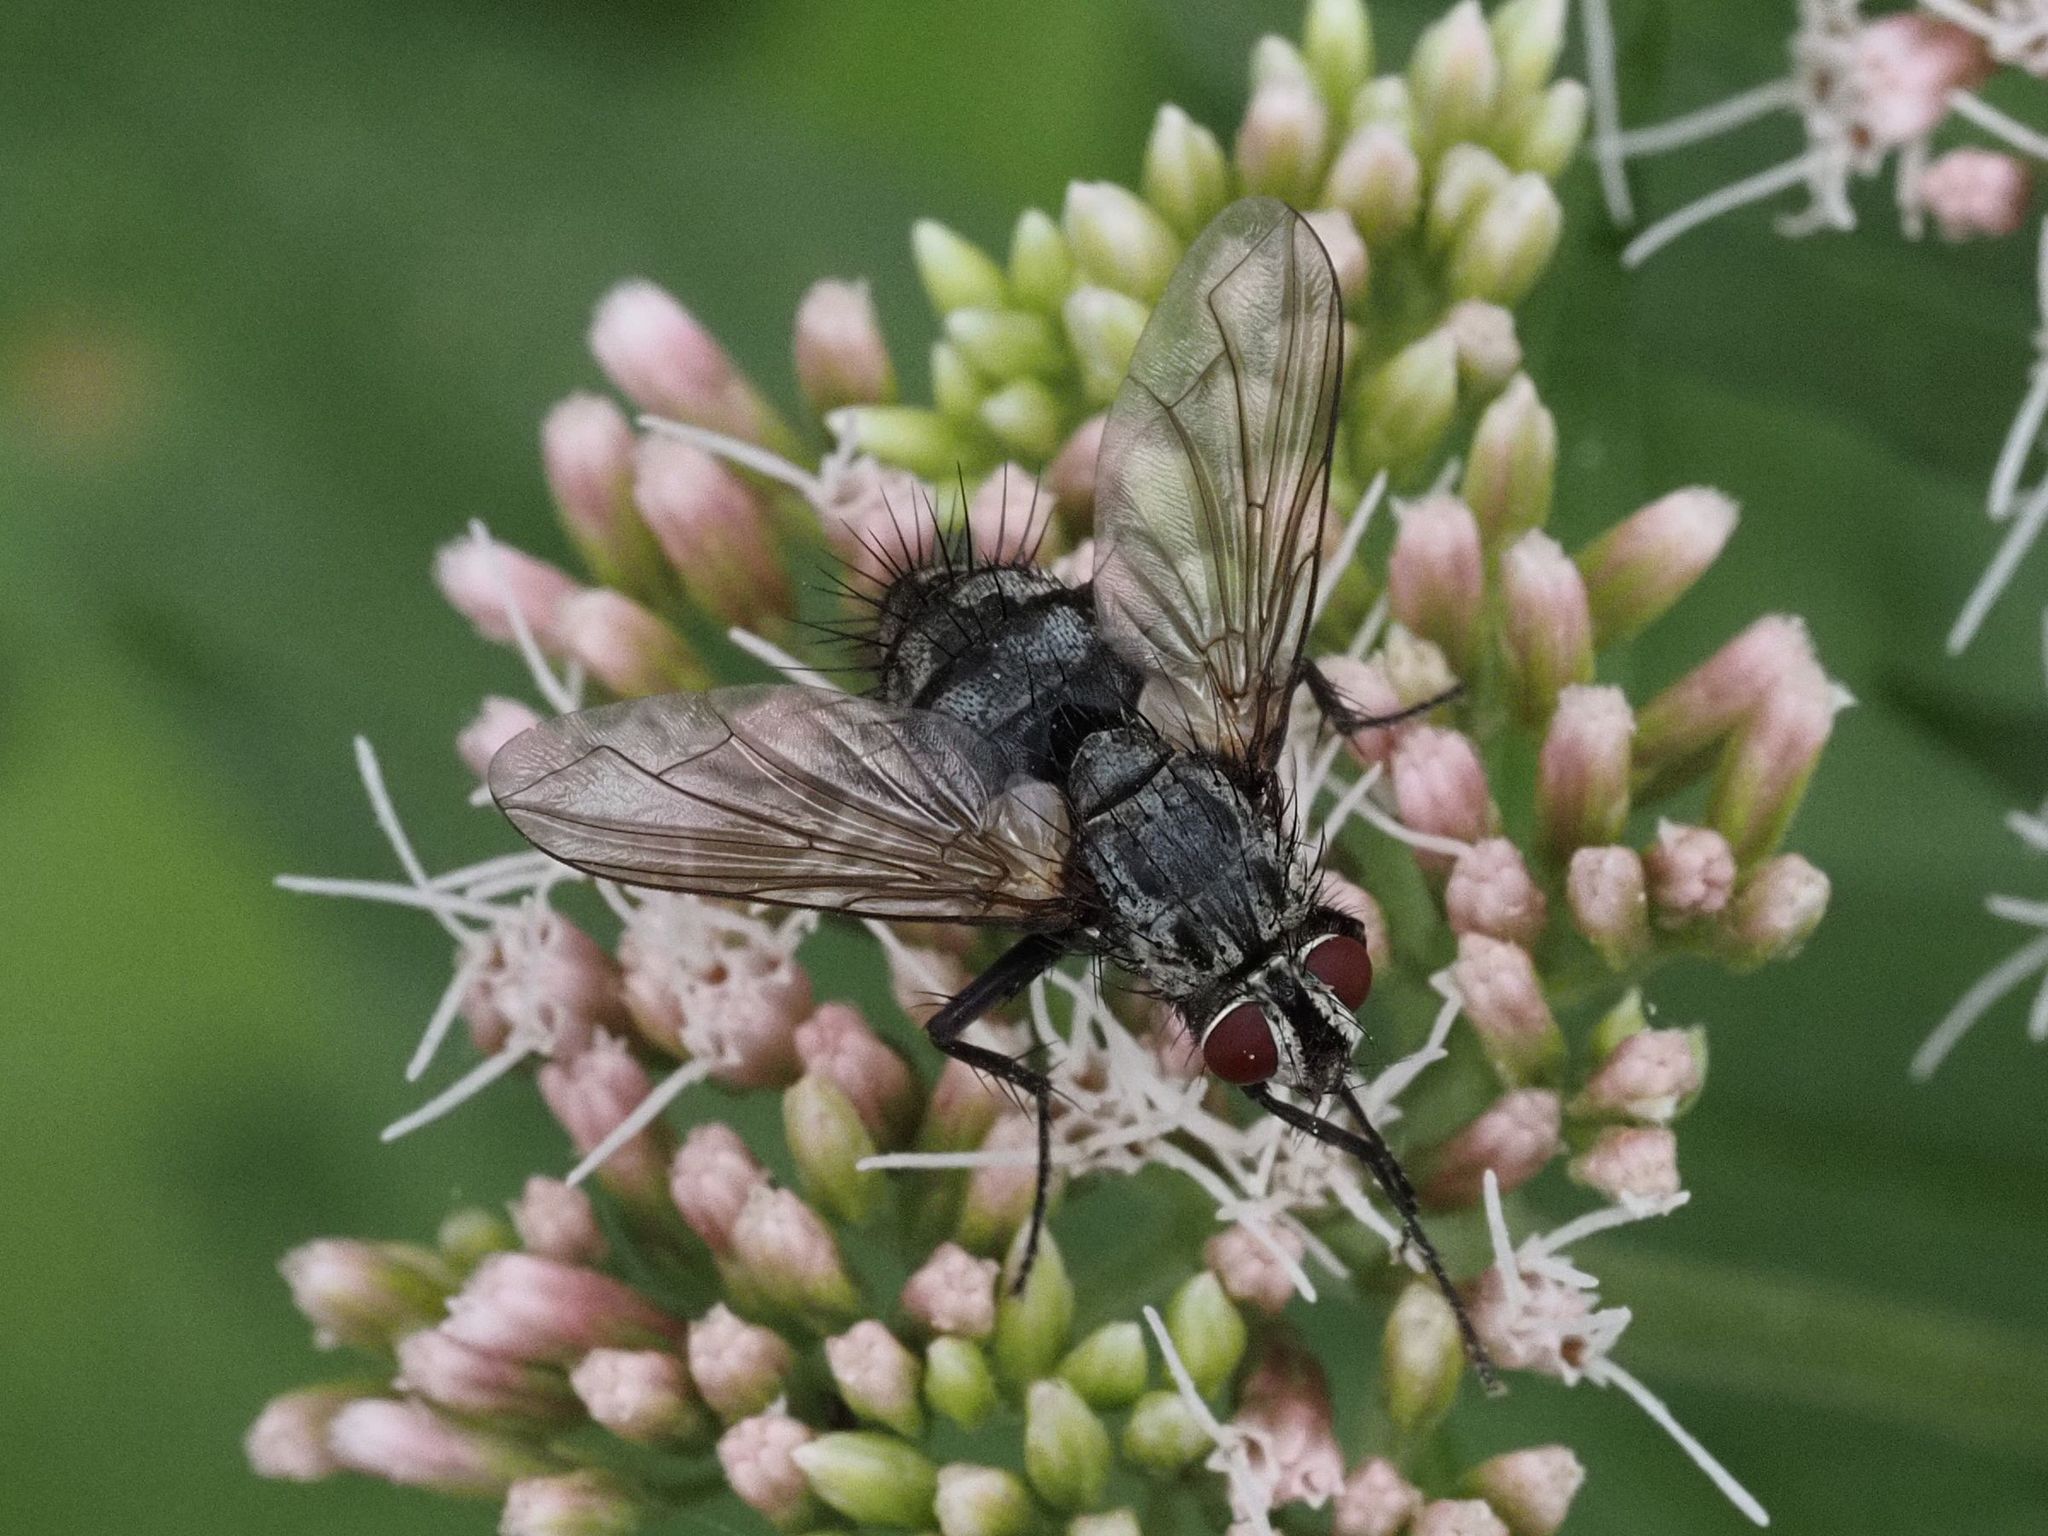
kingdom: Animalia
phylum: Arthropoda
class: Insecta
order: Diptera
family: Tachinidae
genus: Dinera
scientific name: Dinera ferina
